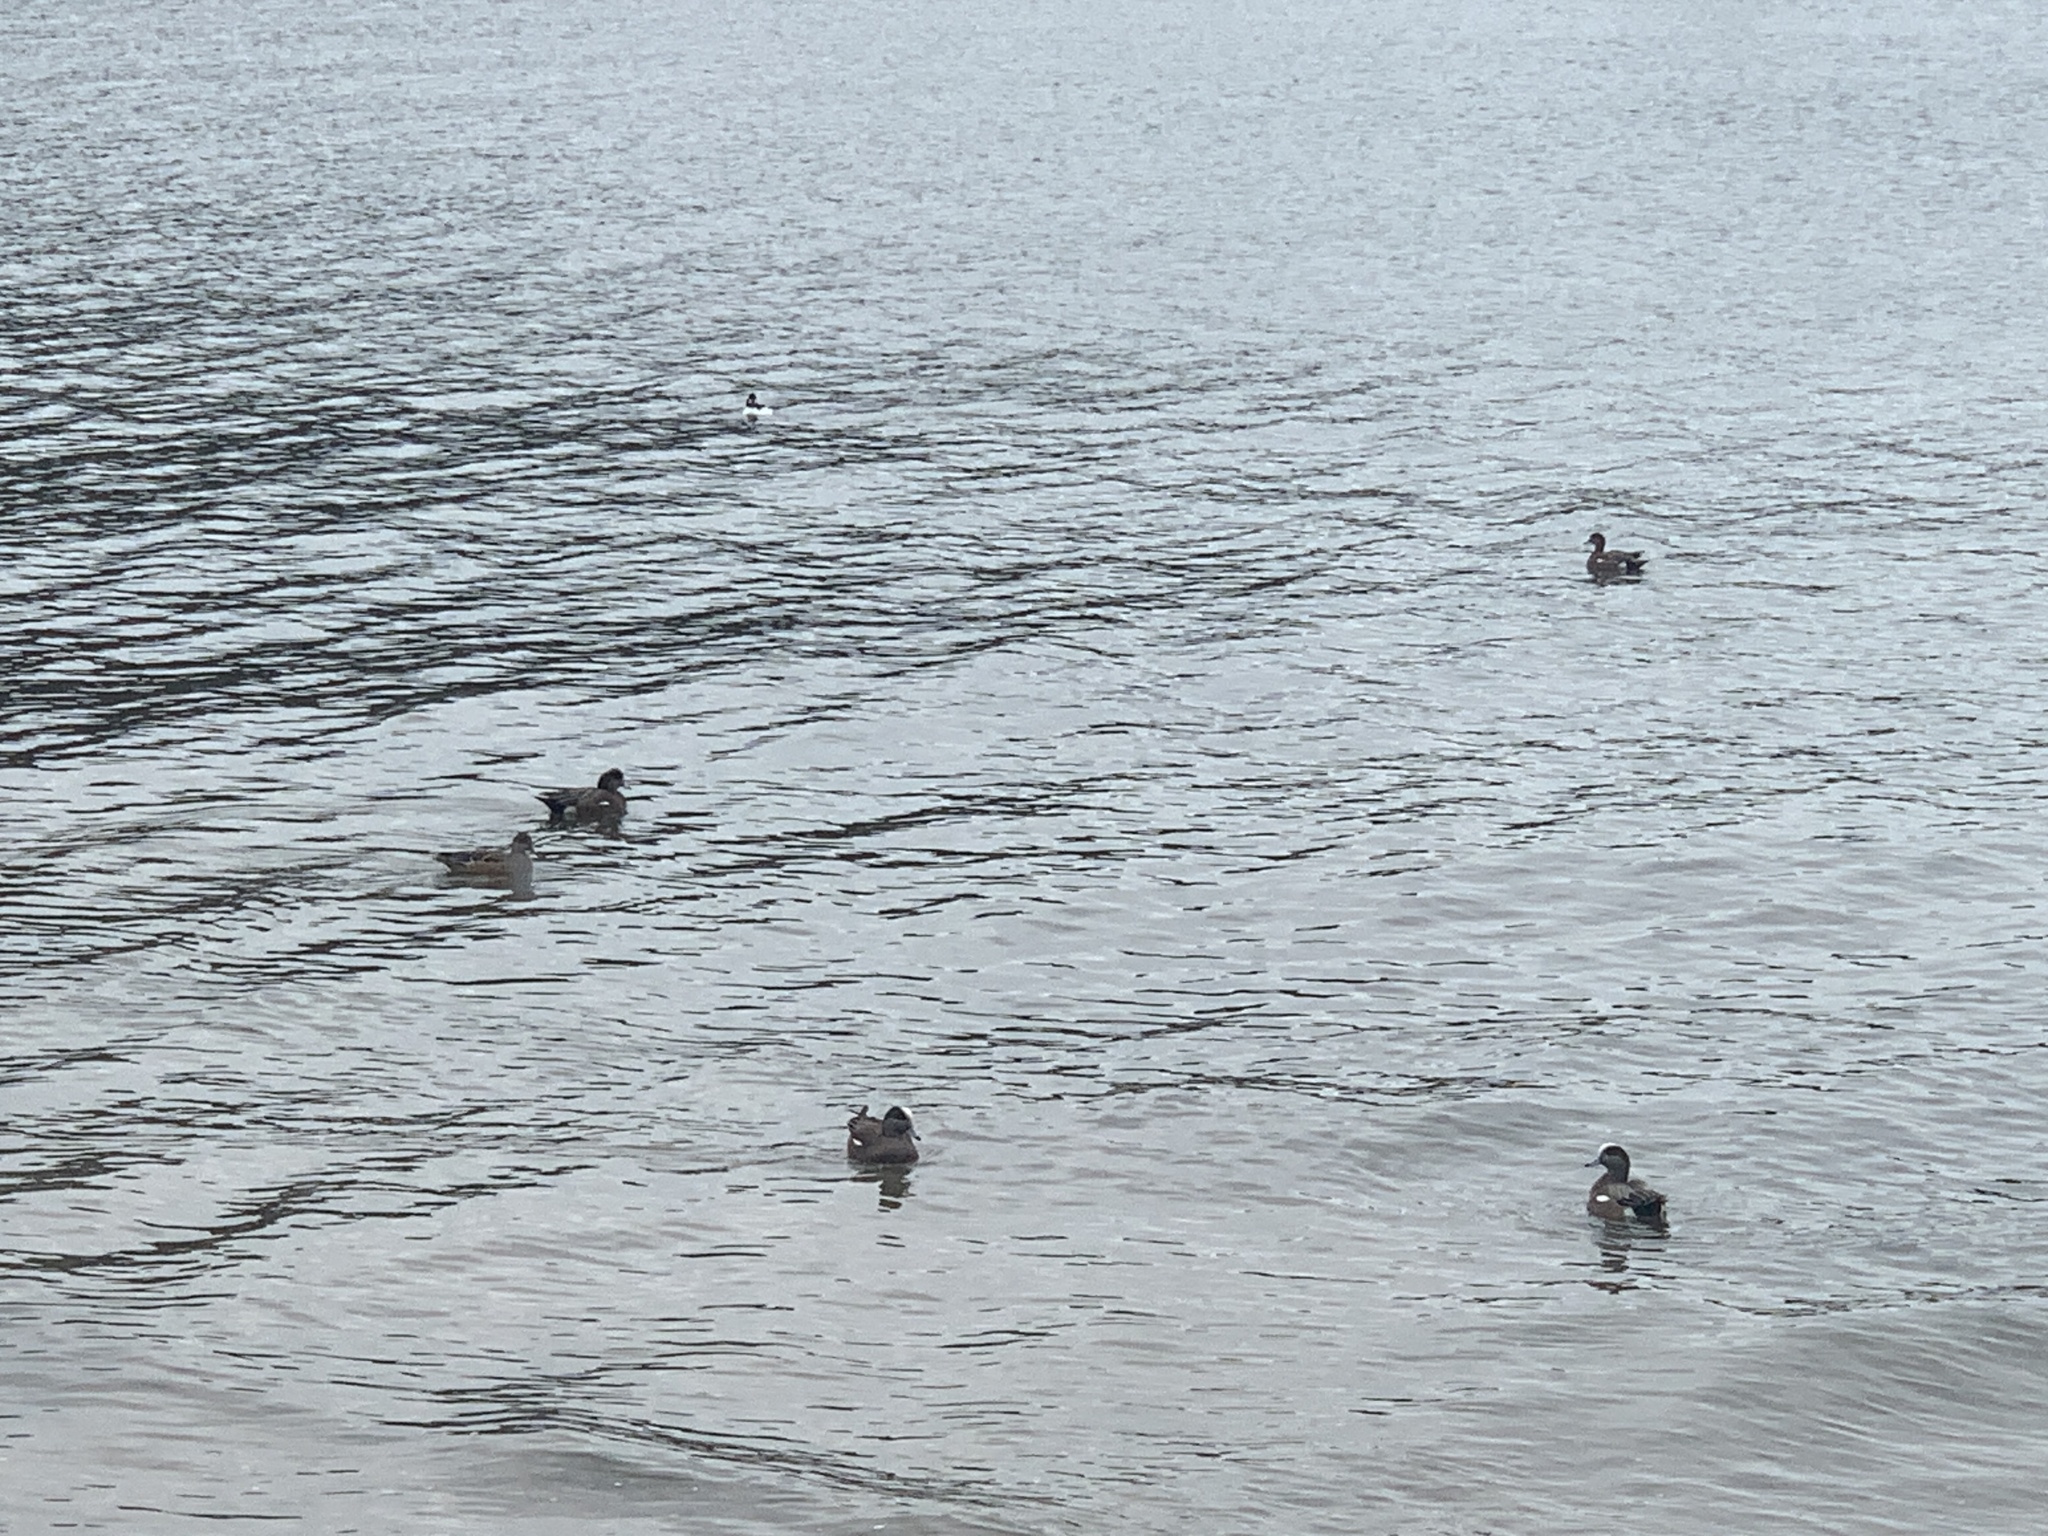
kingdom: Animalia
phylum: Chordata
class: Aves
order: Anseriformes
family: Anatidae
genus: Mareca
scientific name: Mareca americana
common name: American wigeon
